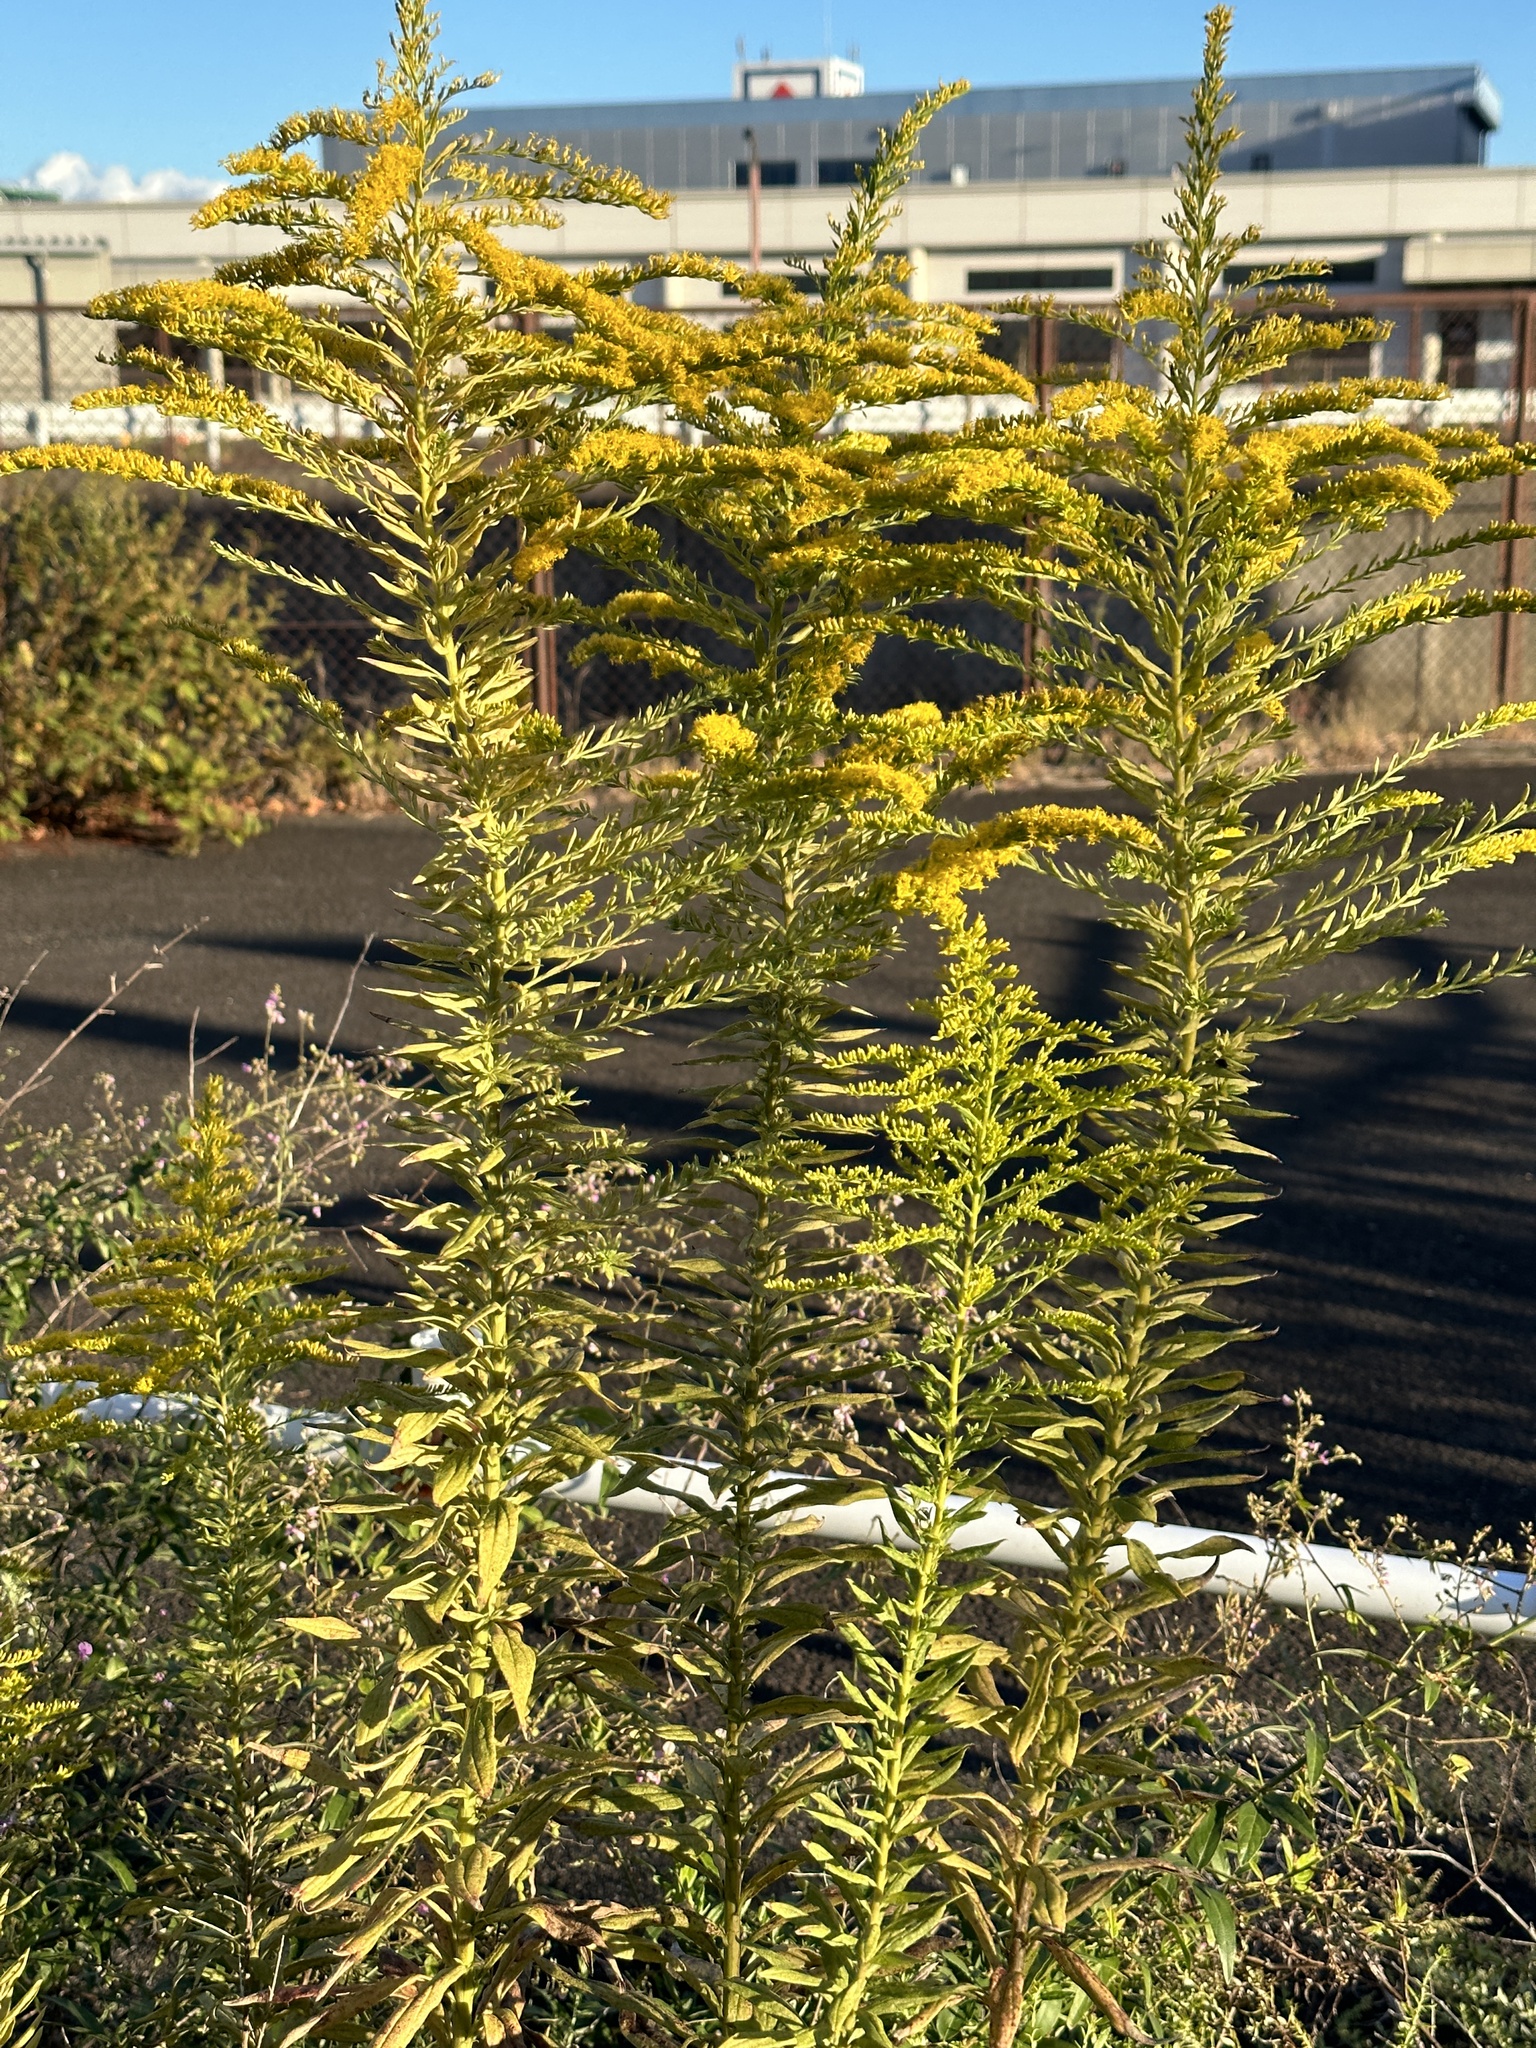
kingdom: Plantae
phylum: Tracheophyta
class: Magnoliopsida
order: Asterales
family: Asteraceae
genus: Solidago
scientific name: Solidago altissima
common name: Late goldenrod
